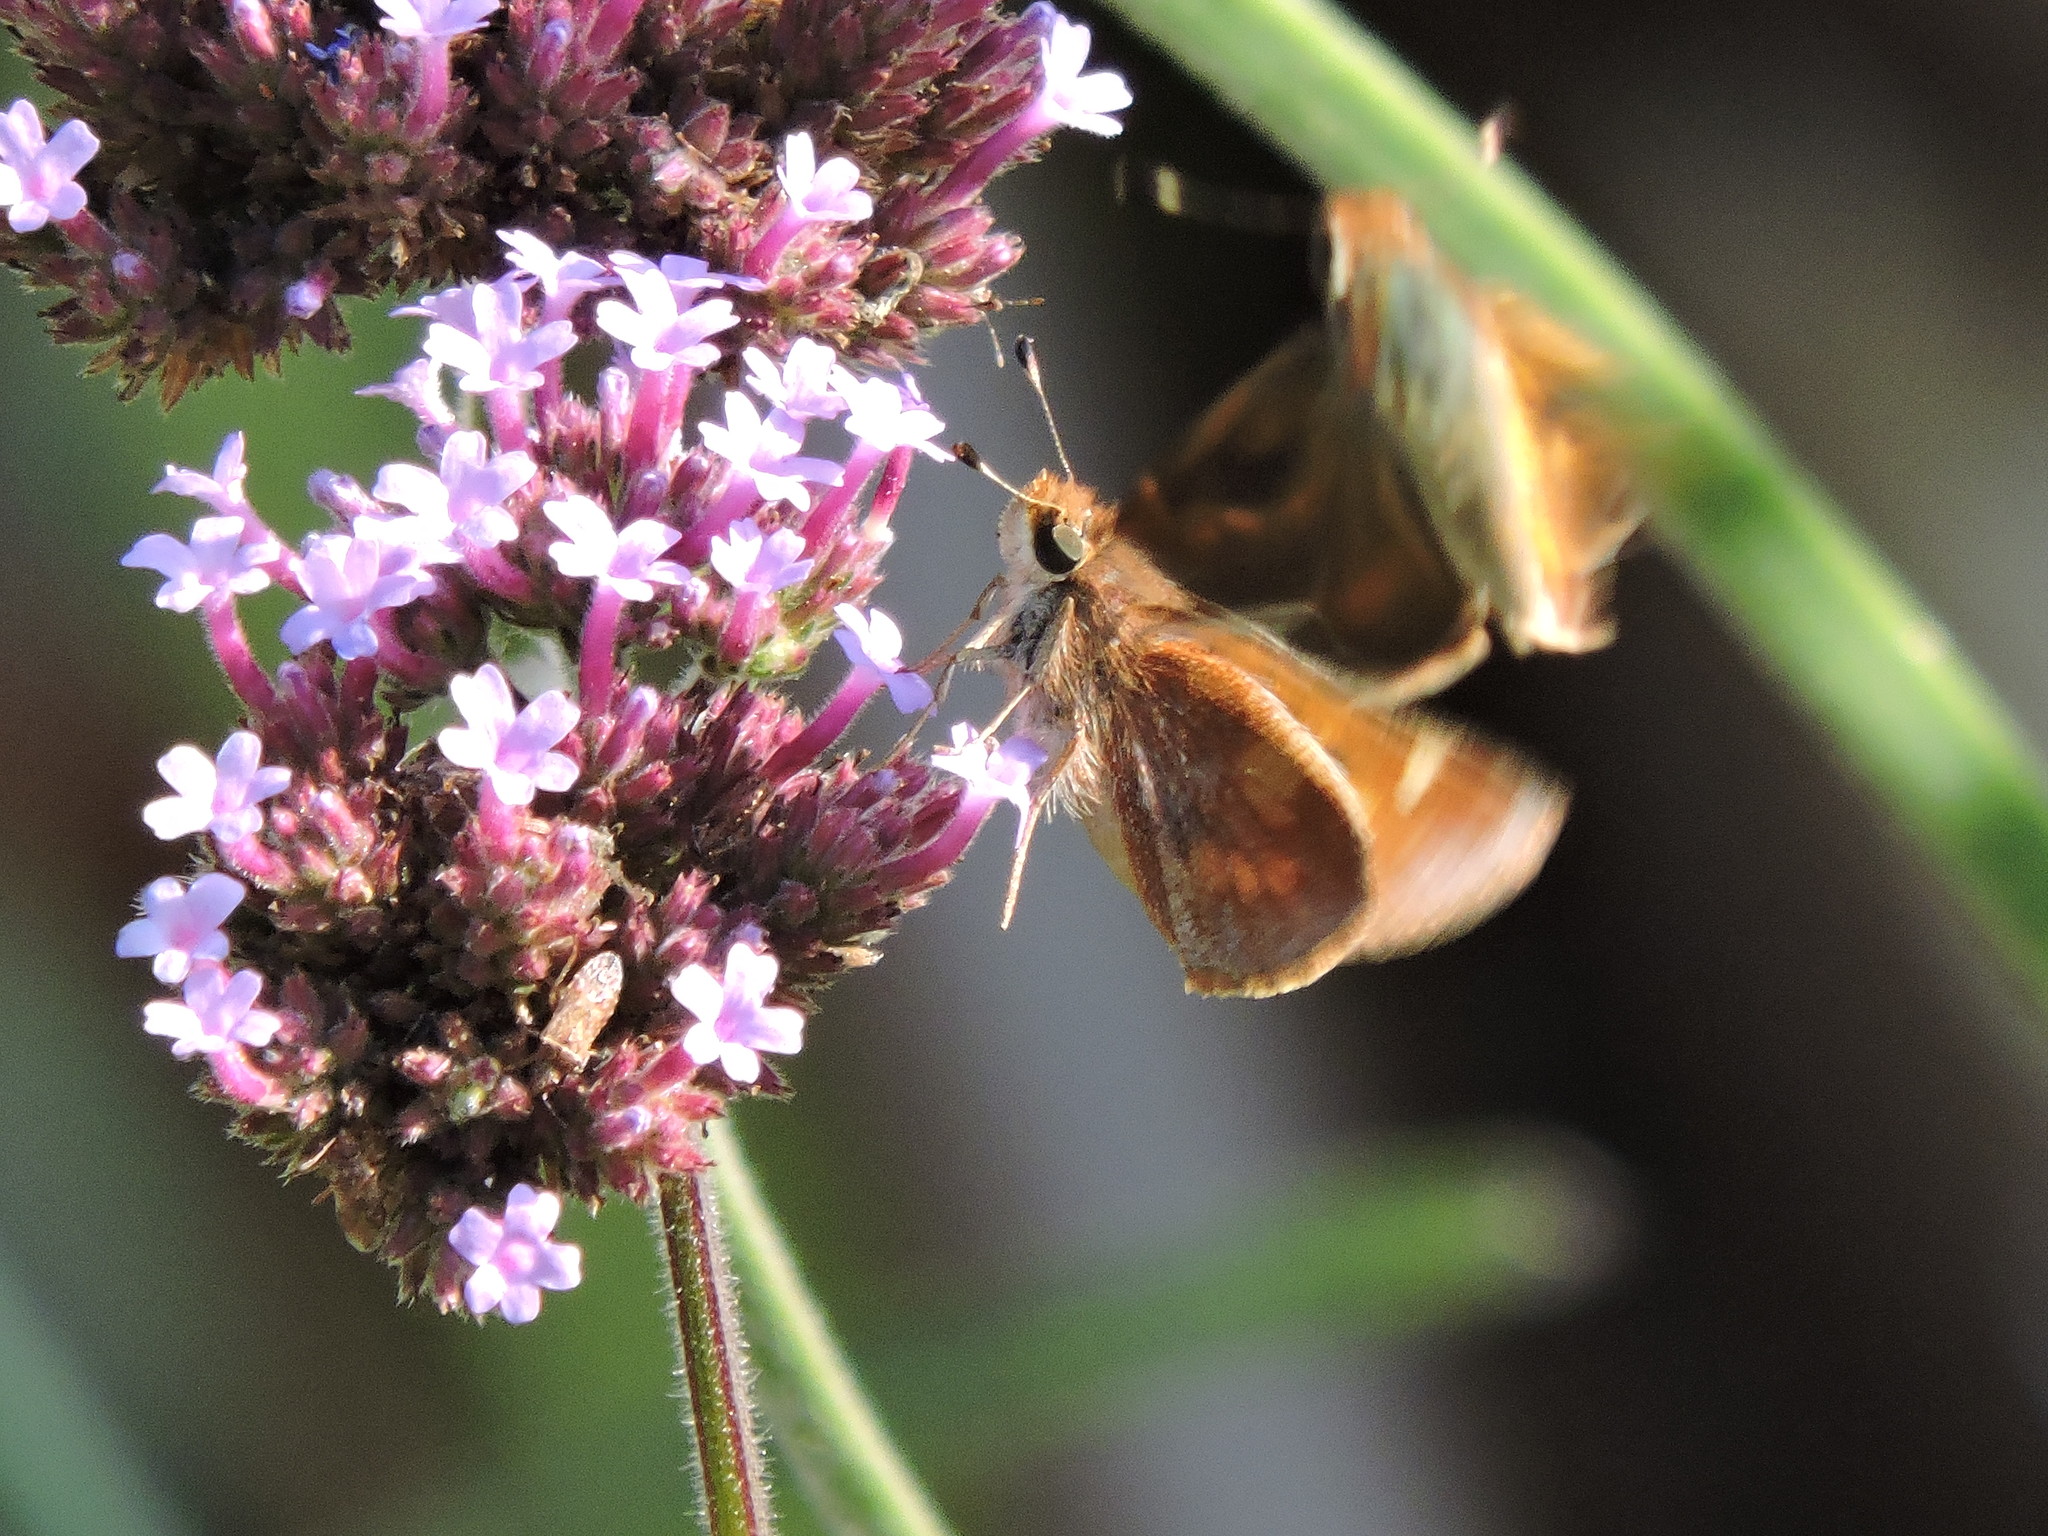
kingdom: Animalia
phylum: Arthropoda
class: Insecta
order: Lepidoptera
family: Hesperiidae
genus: Lon
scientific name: Lon melane
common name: Umber skipper
